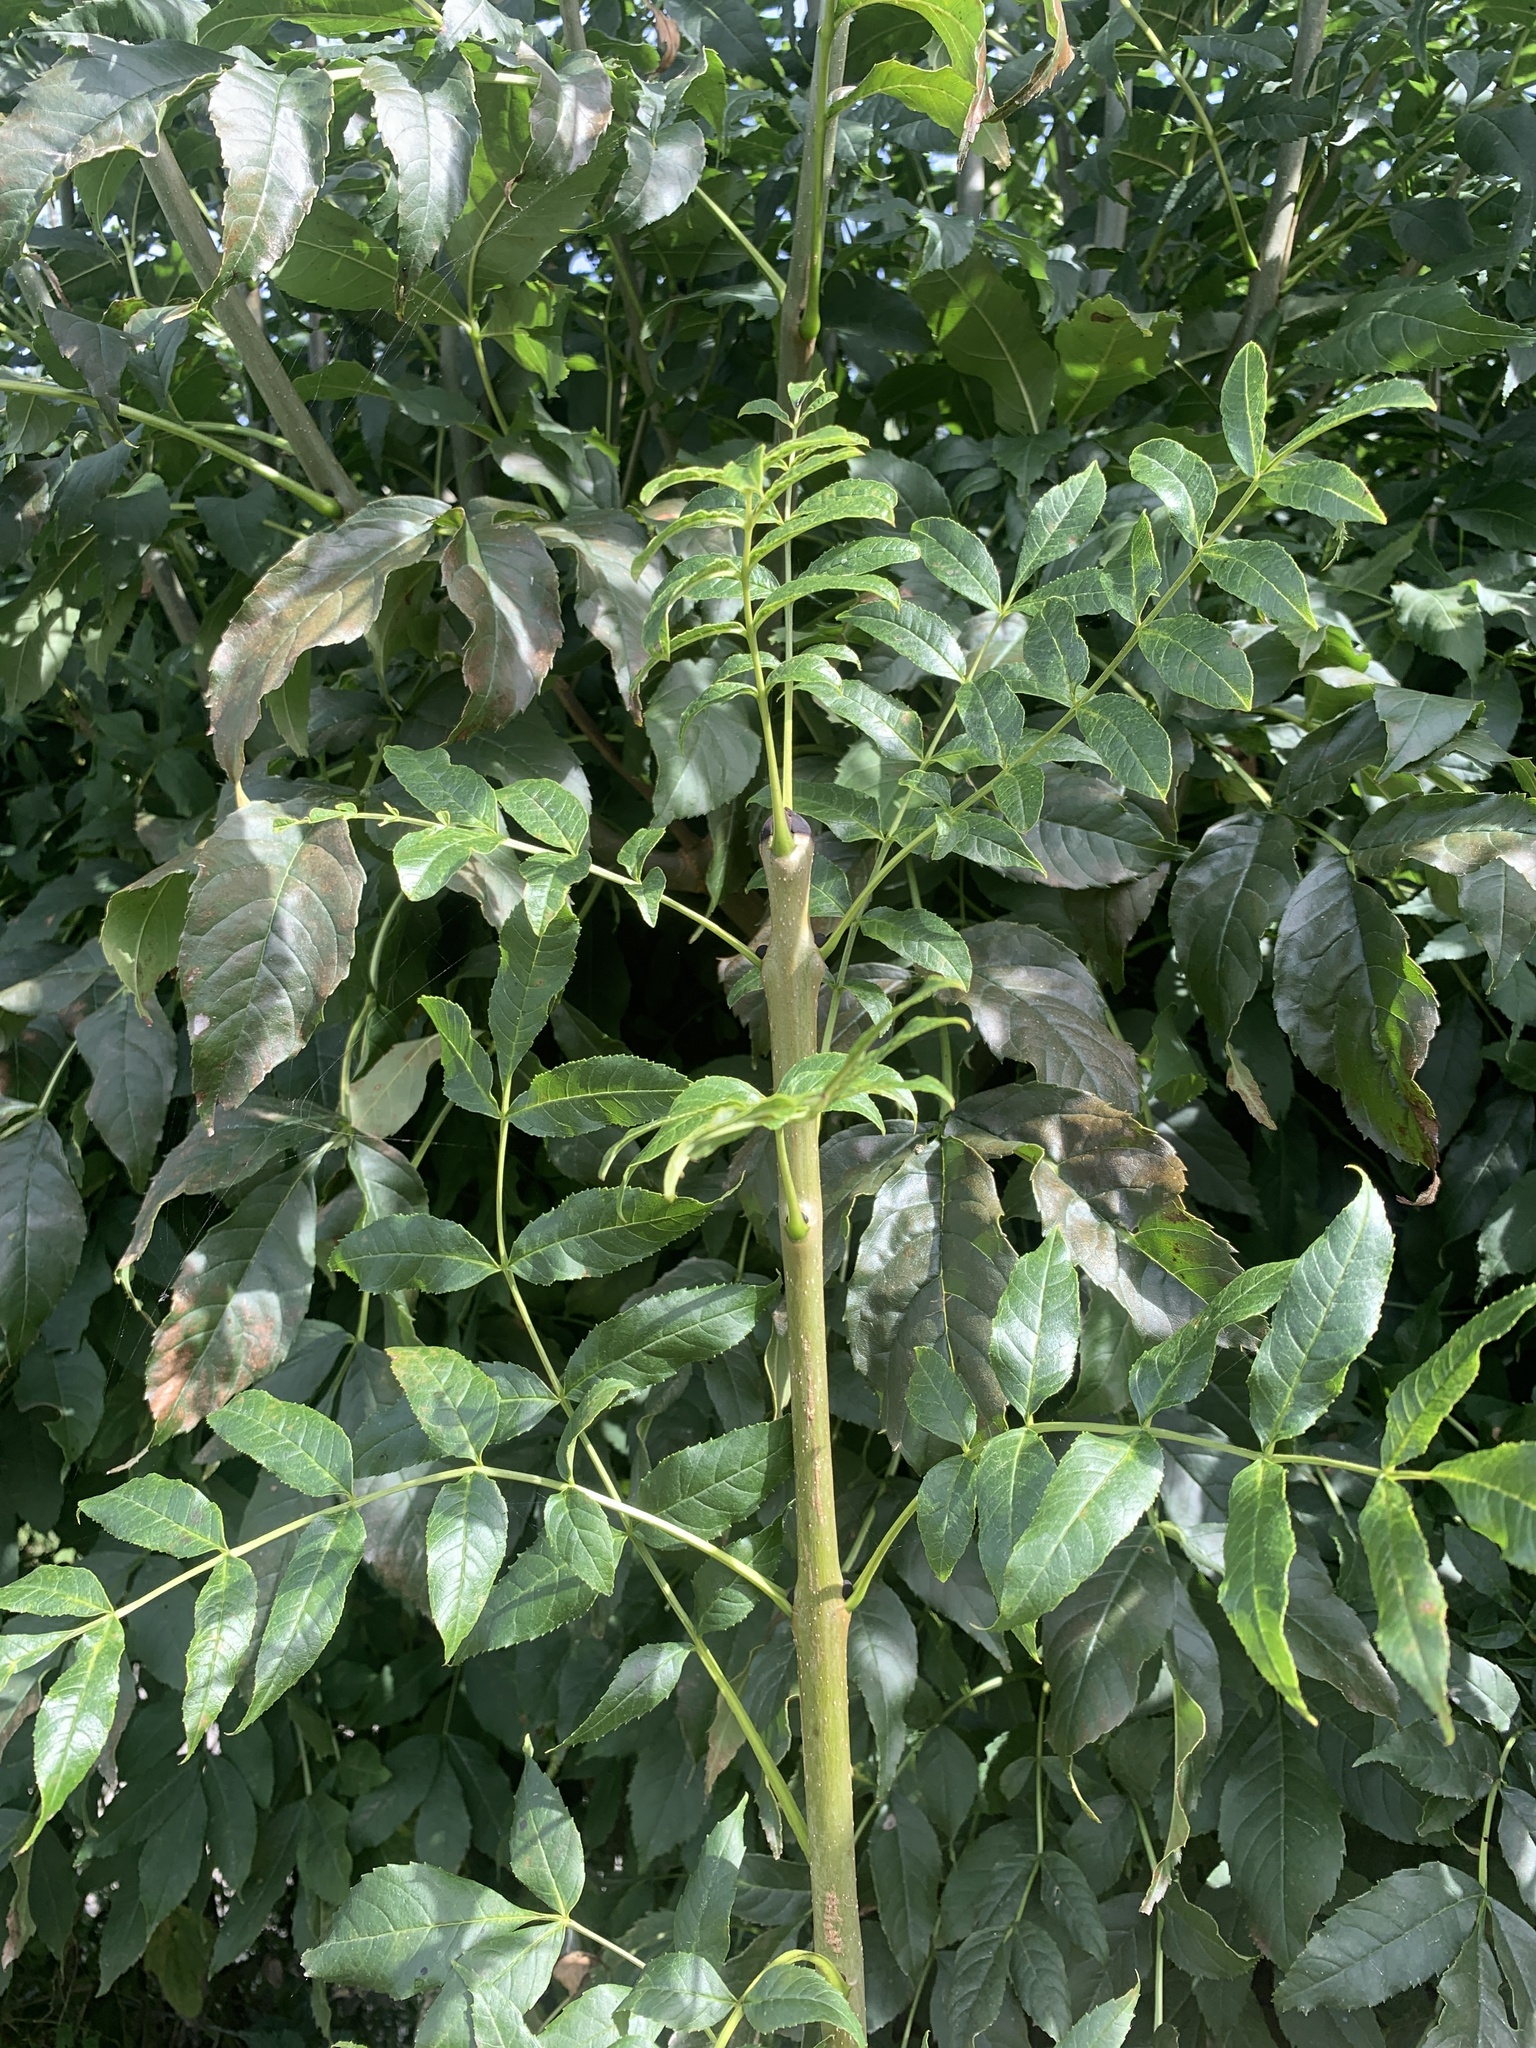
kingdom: Plantae
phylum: Tracheophyta
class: Magnoliopsida
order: Lamiales
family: Oleaceae
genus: Fraxinus
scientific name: Fraxinus excelsior
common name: European ash
